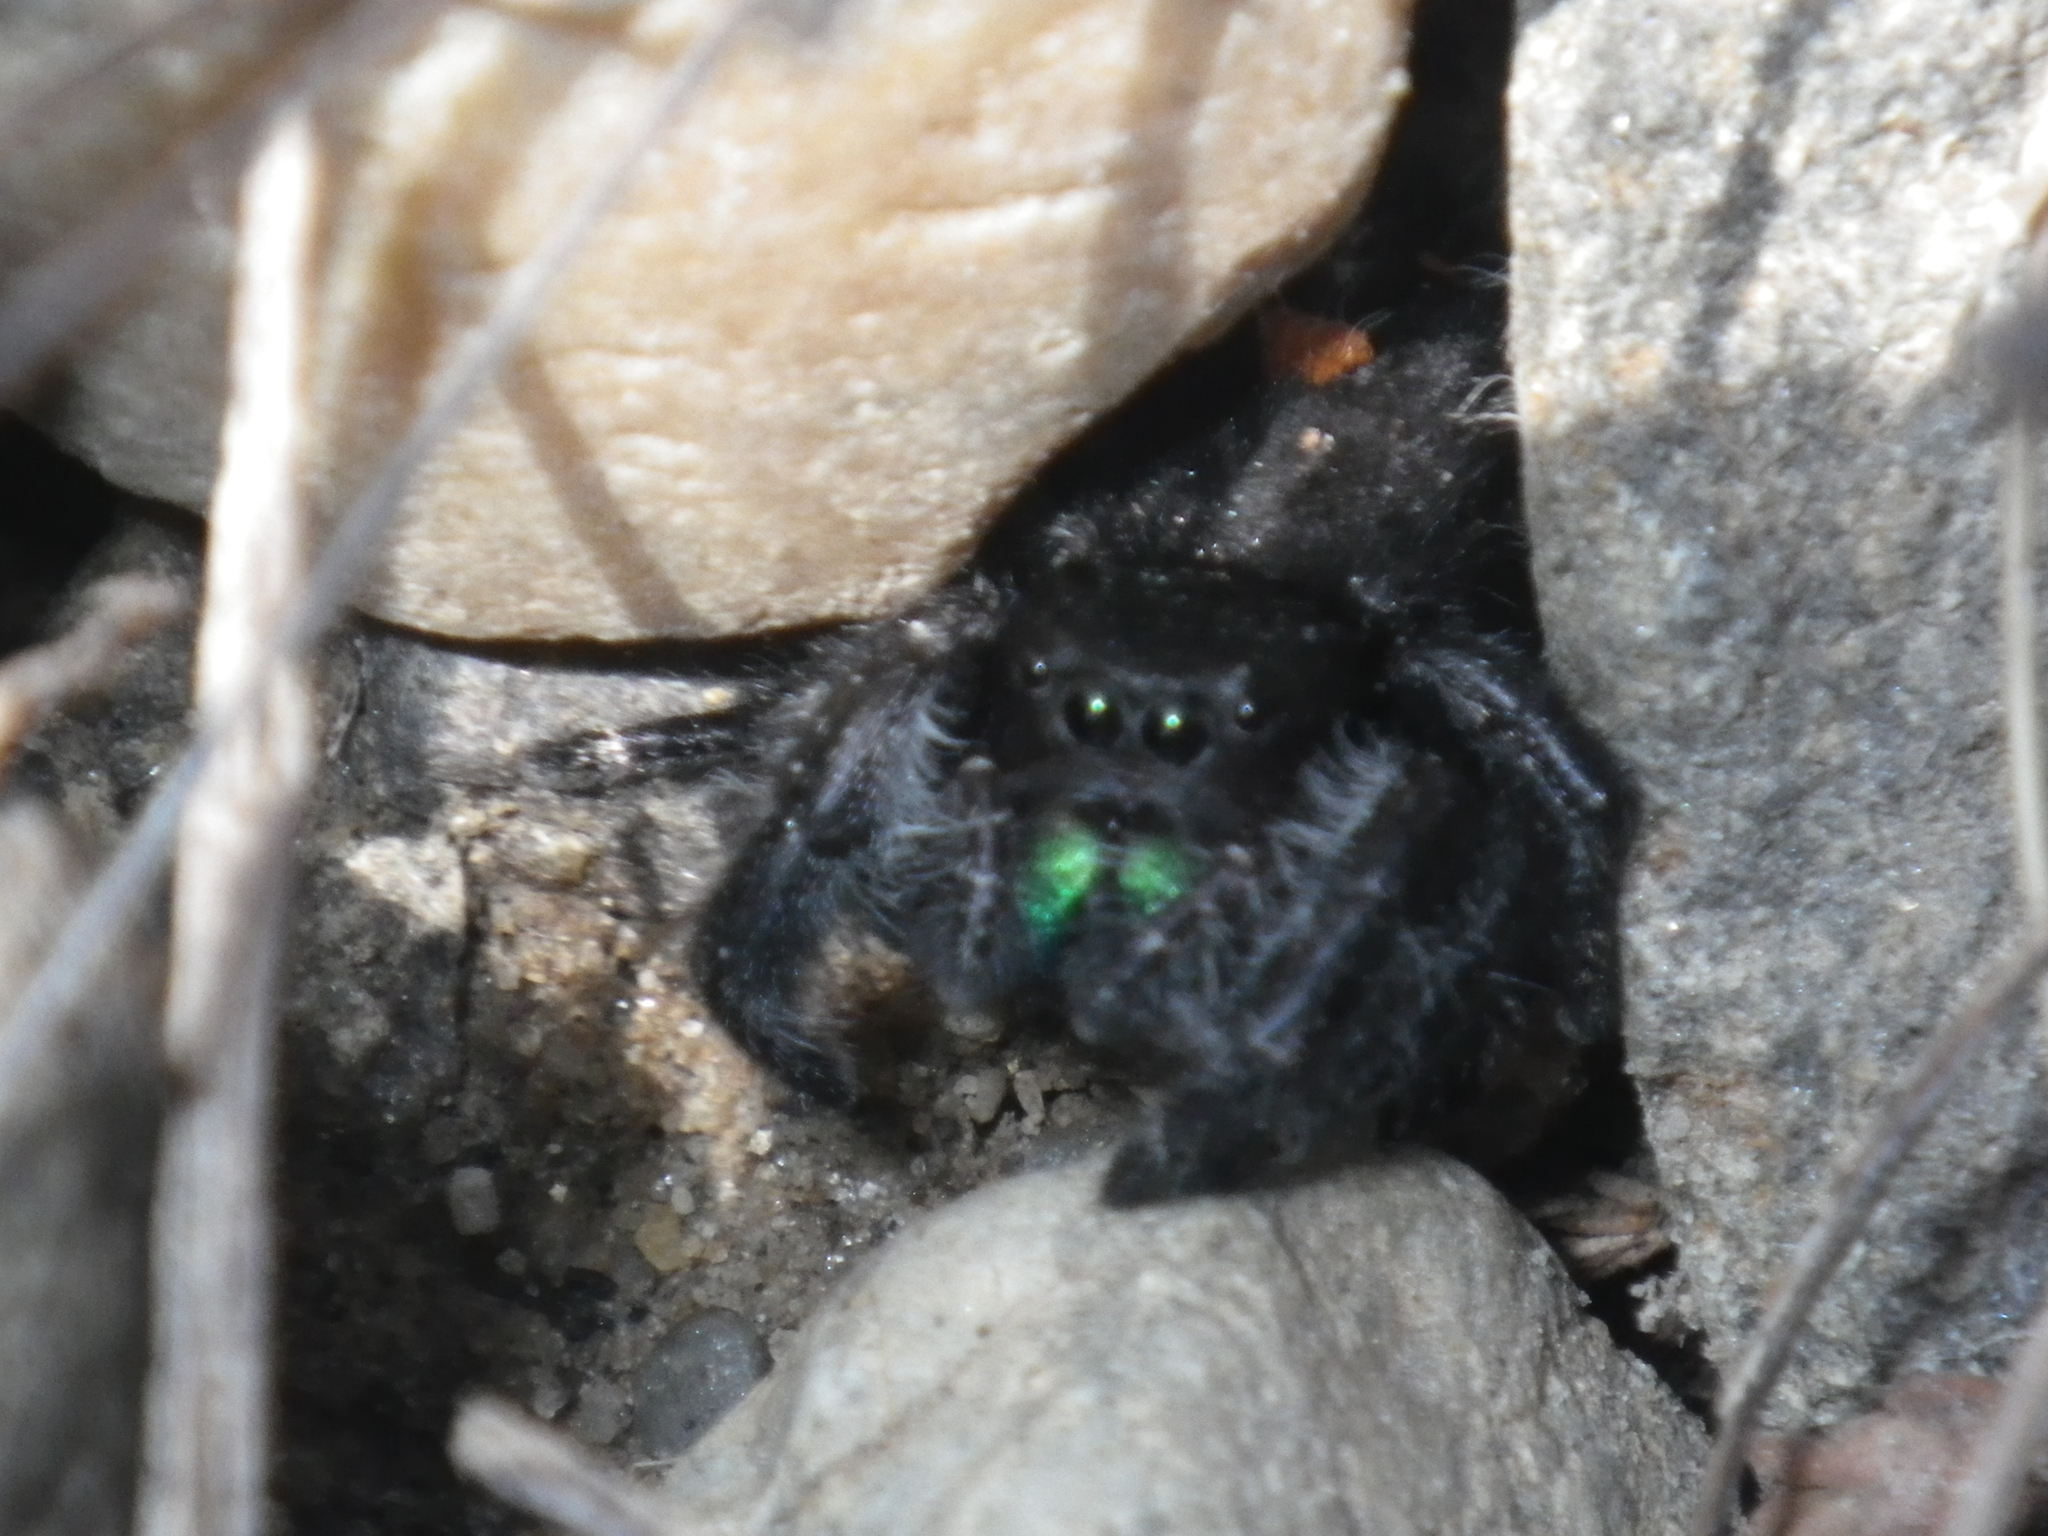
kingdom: Animalia
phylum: Arthropoda
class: Arachnida
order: Araneae
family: Salticidae
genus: Phidippus
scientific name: Phidippus audax
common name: Bold jumper
